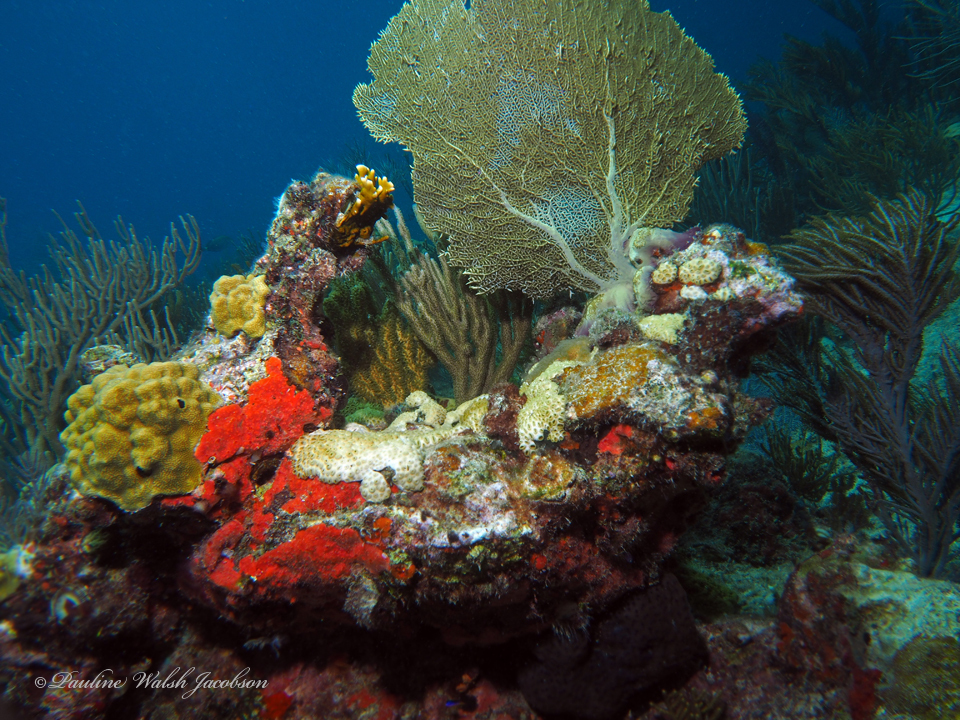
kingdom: Animalia
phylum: Cnidaria
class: Anthozoa
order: Malacalcyonacea
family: Gorgoniidae
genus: Gorgonia
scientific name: Gorgonia ventalina
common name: Common sea fan
